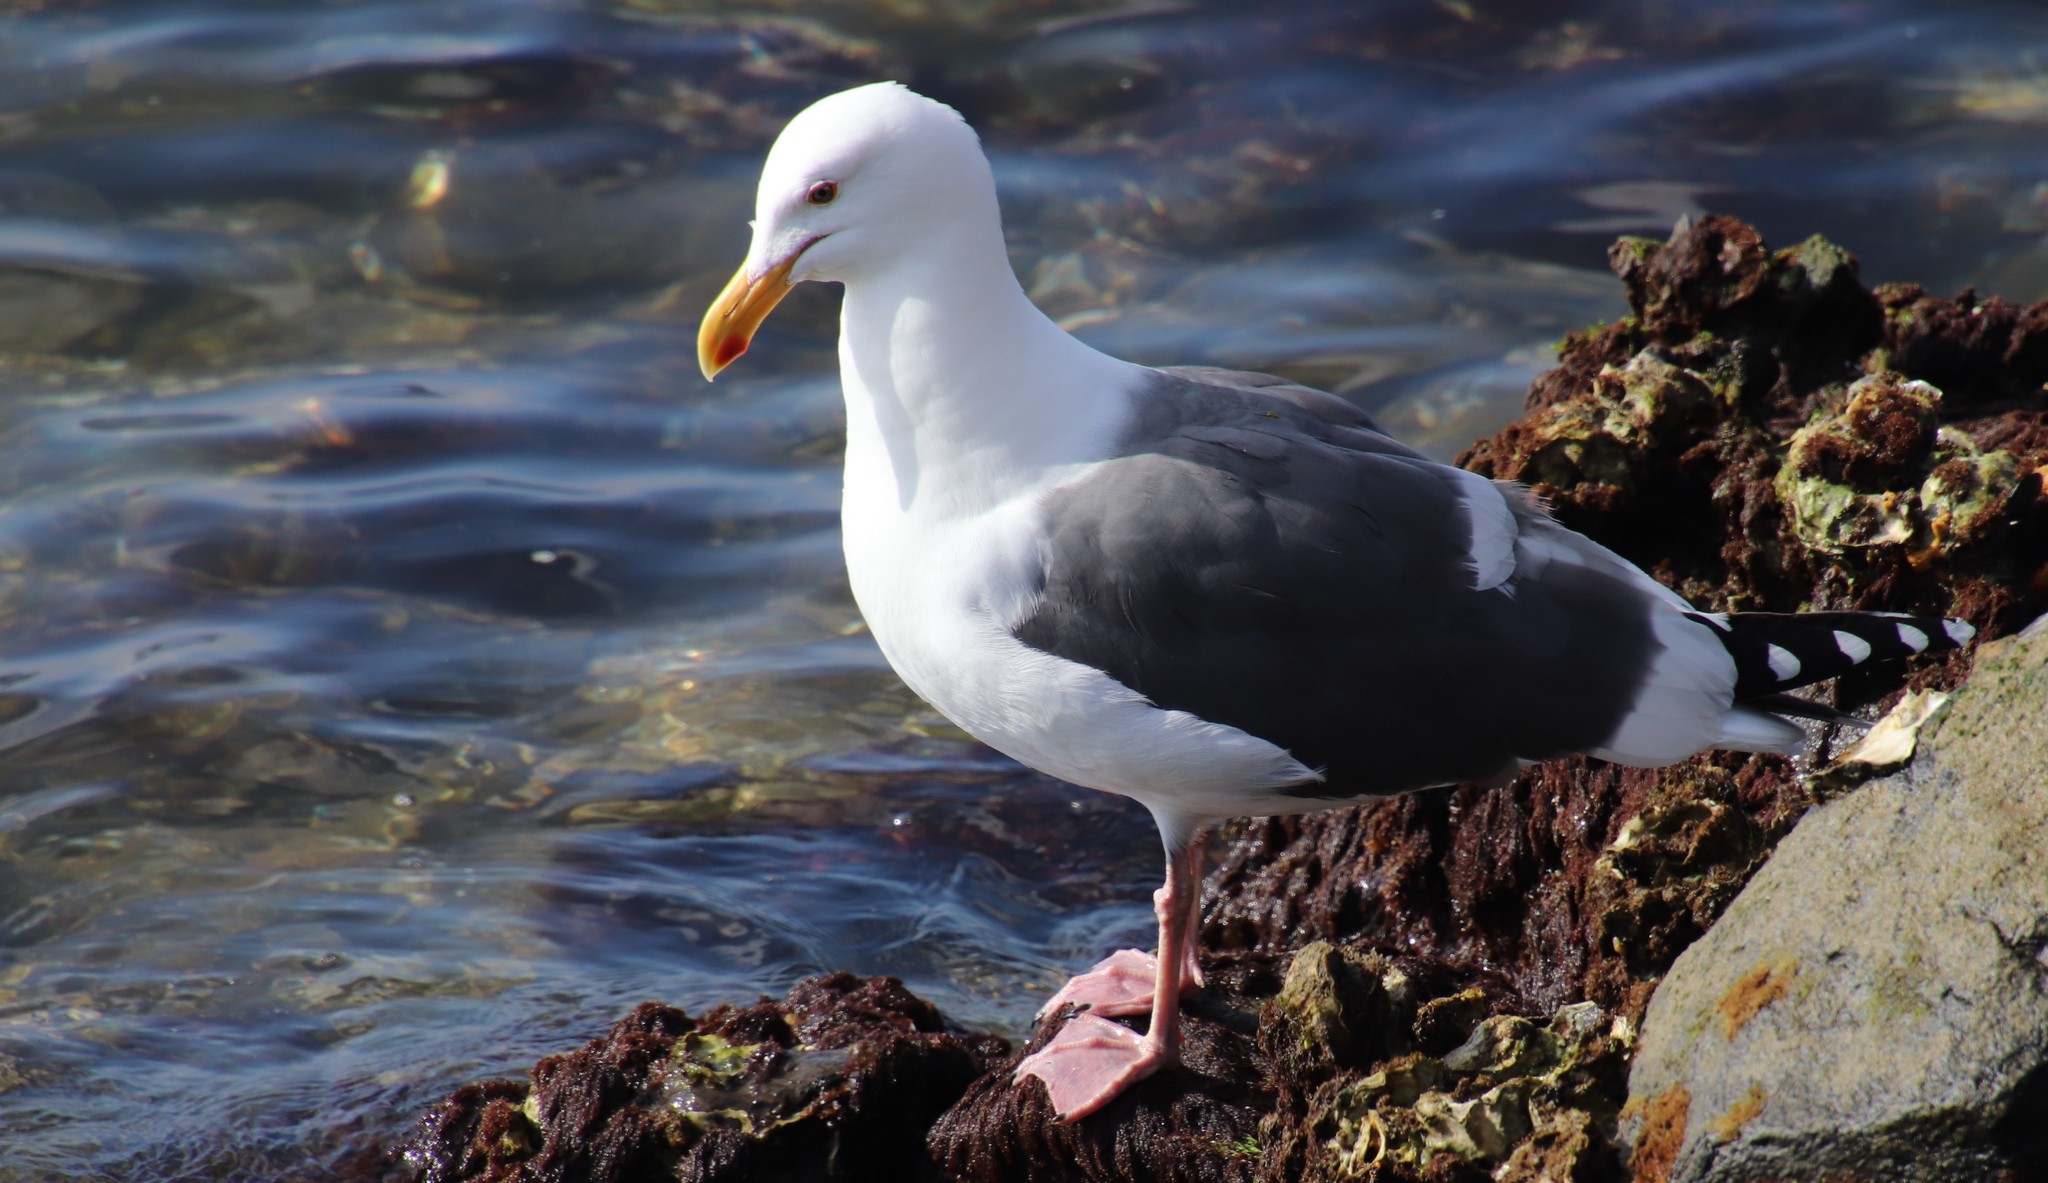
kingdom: Animalia
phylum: Chordata
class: Aves
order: Charadriiformes
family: Laridae
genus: Larus
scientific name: Larus occidentalis
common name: Western gull
